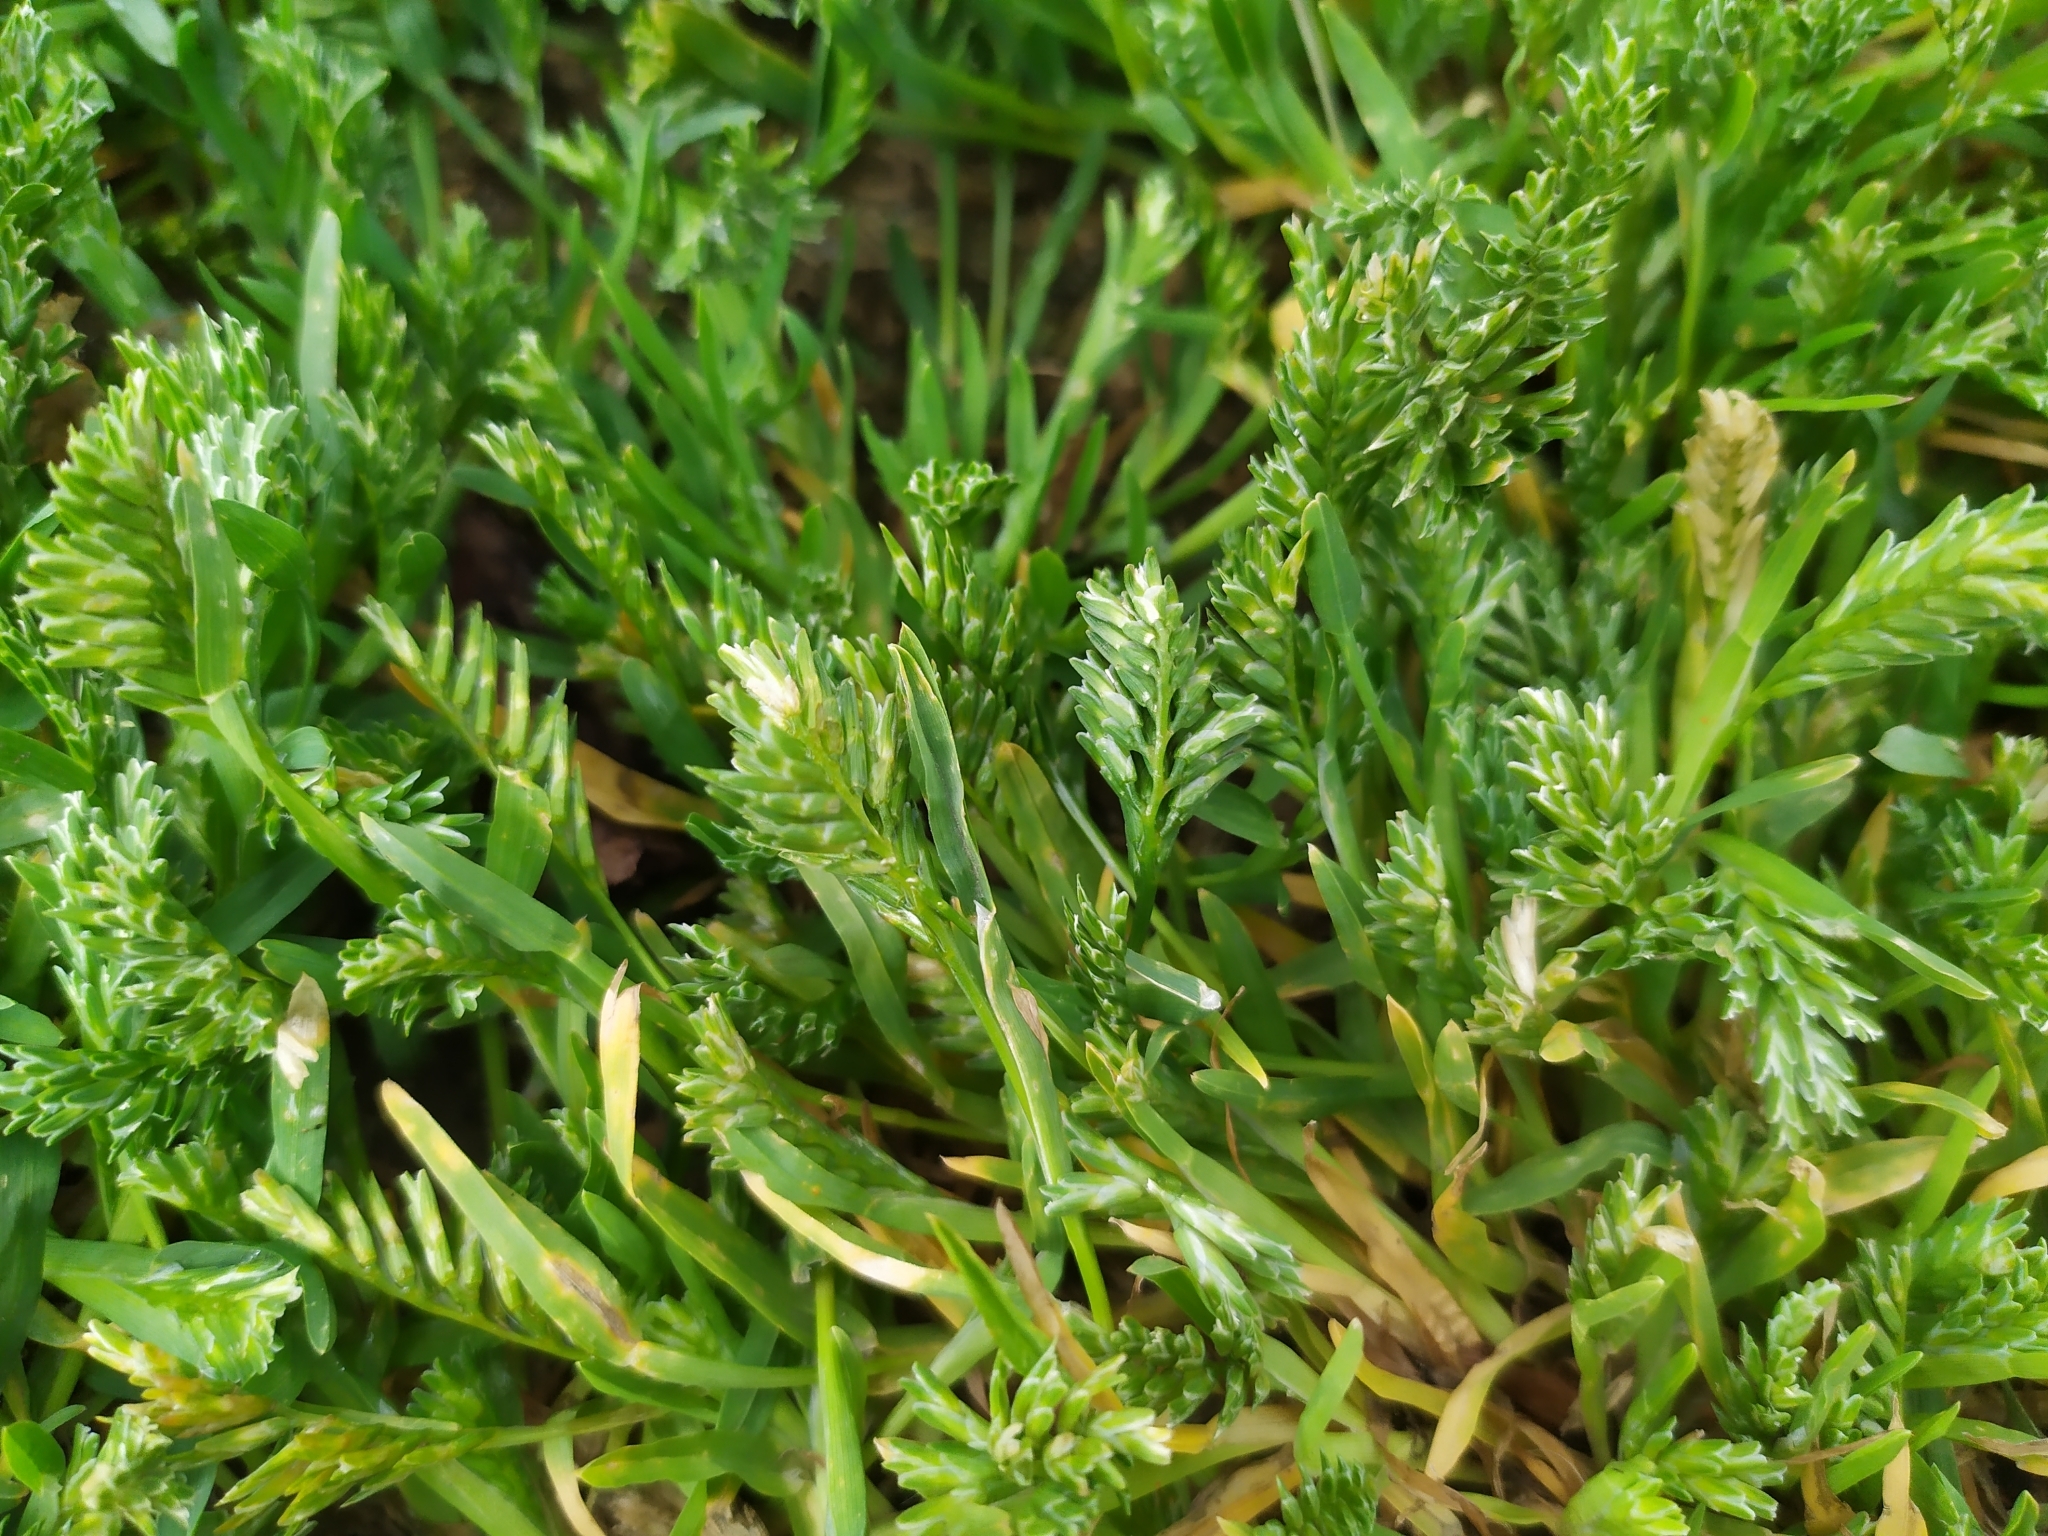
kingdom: Plantae
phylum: Tracheophyta
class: Liliopsida
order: Poales
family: Poaceae
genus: Sclerochloa
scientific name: Sclerochloa dura
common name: Common hardgrass
